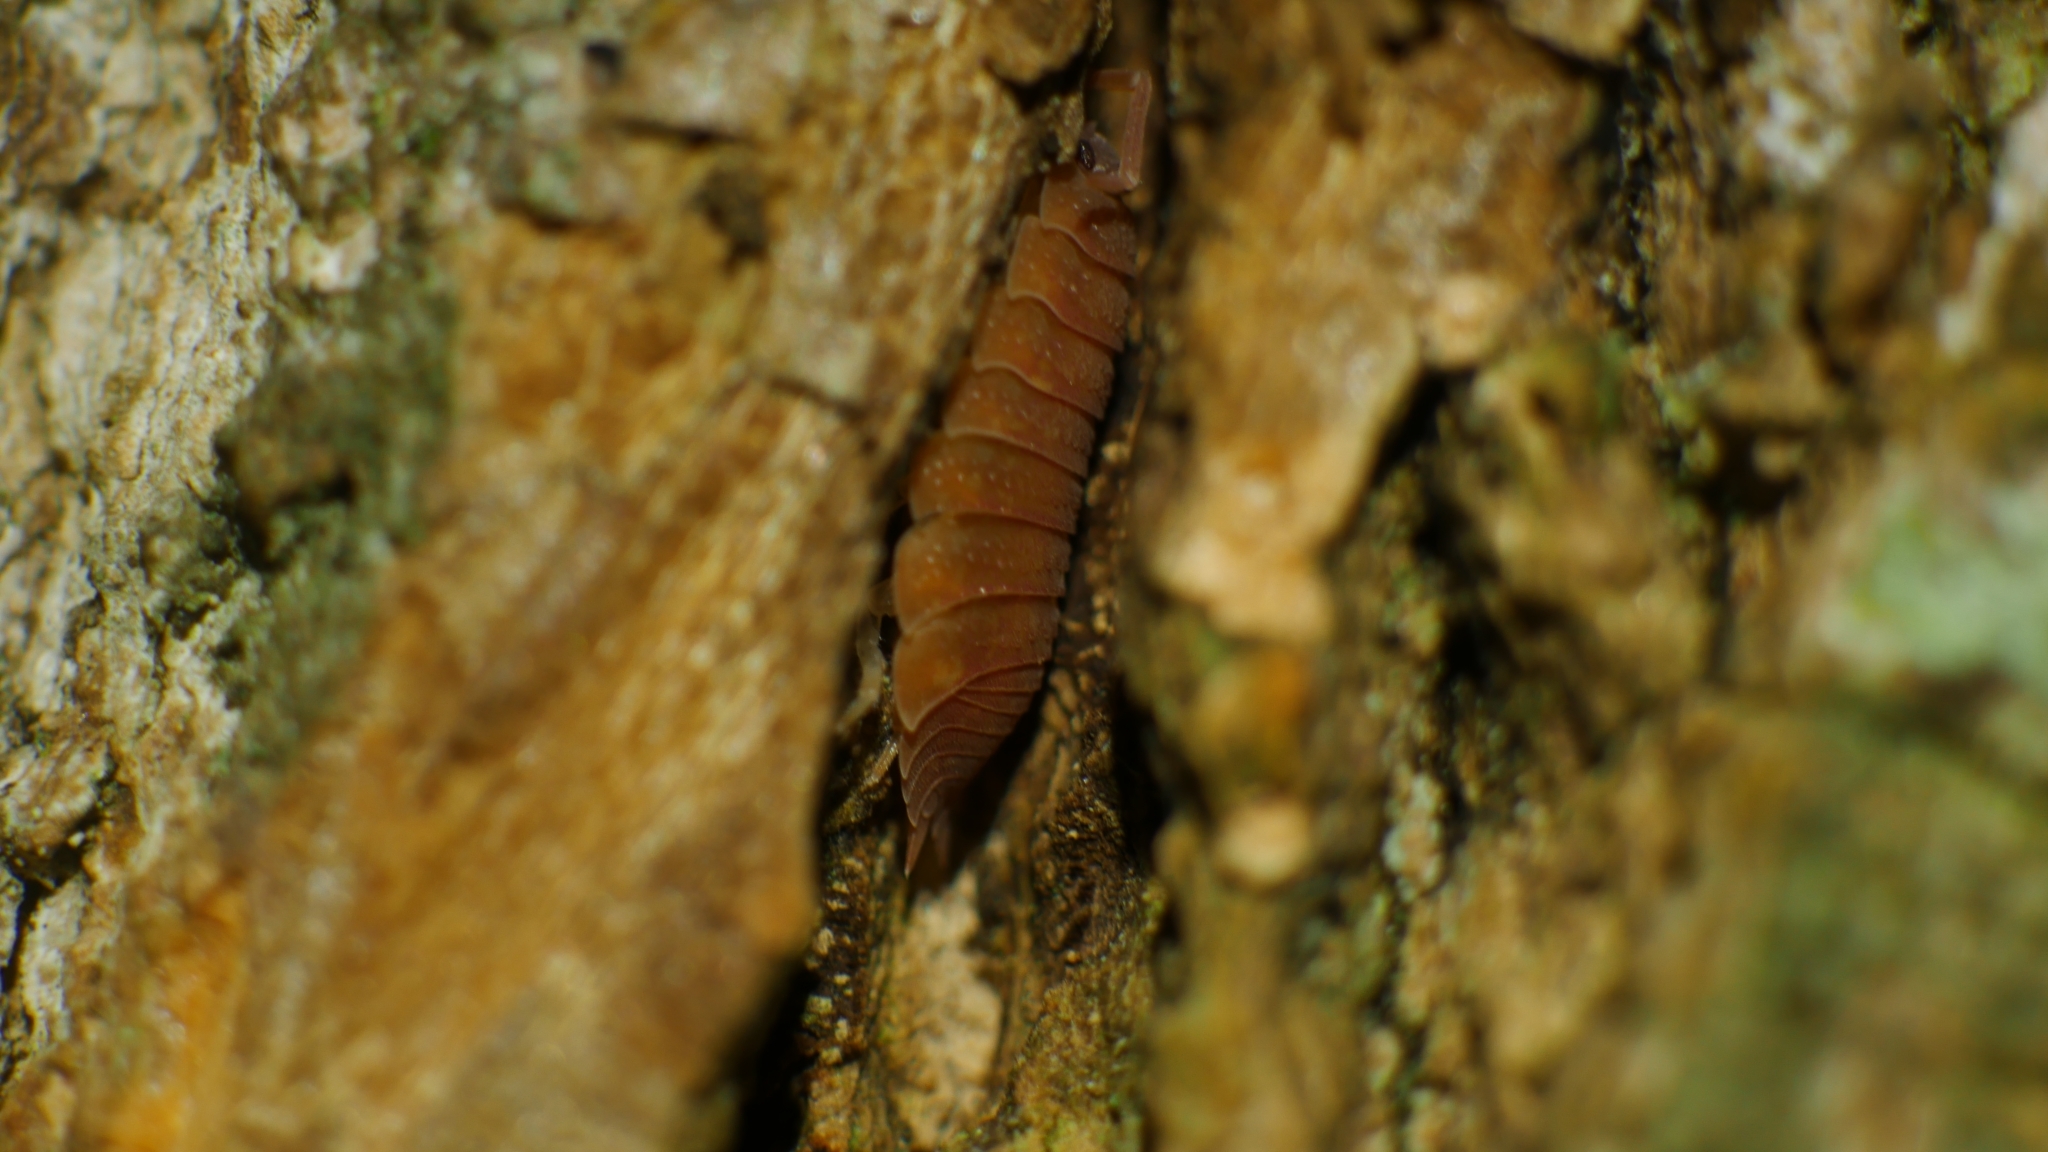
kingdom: Animalia
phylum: Arthropoda
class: Malacostraca
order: Isopoda
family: Porcellionidae
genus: Porcellio
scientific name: Porcellio scaber
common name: Common rough woodlouse
